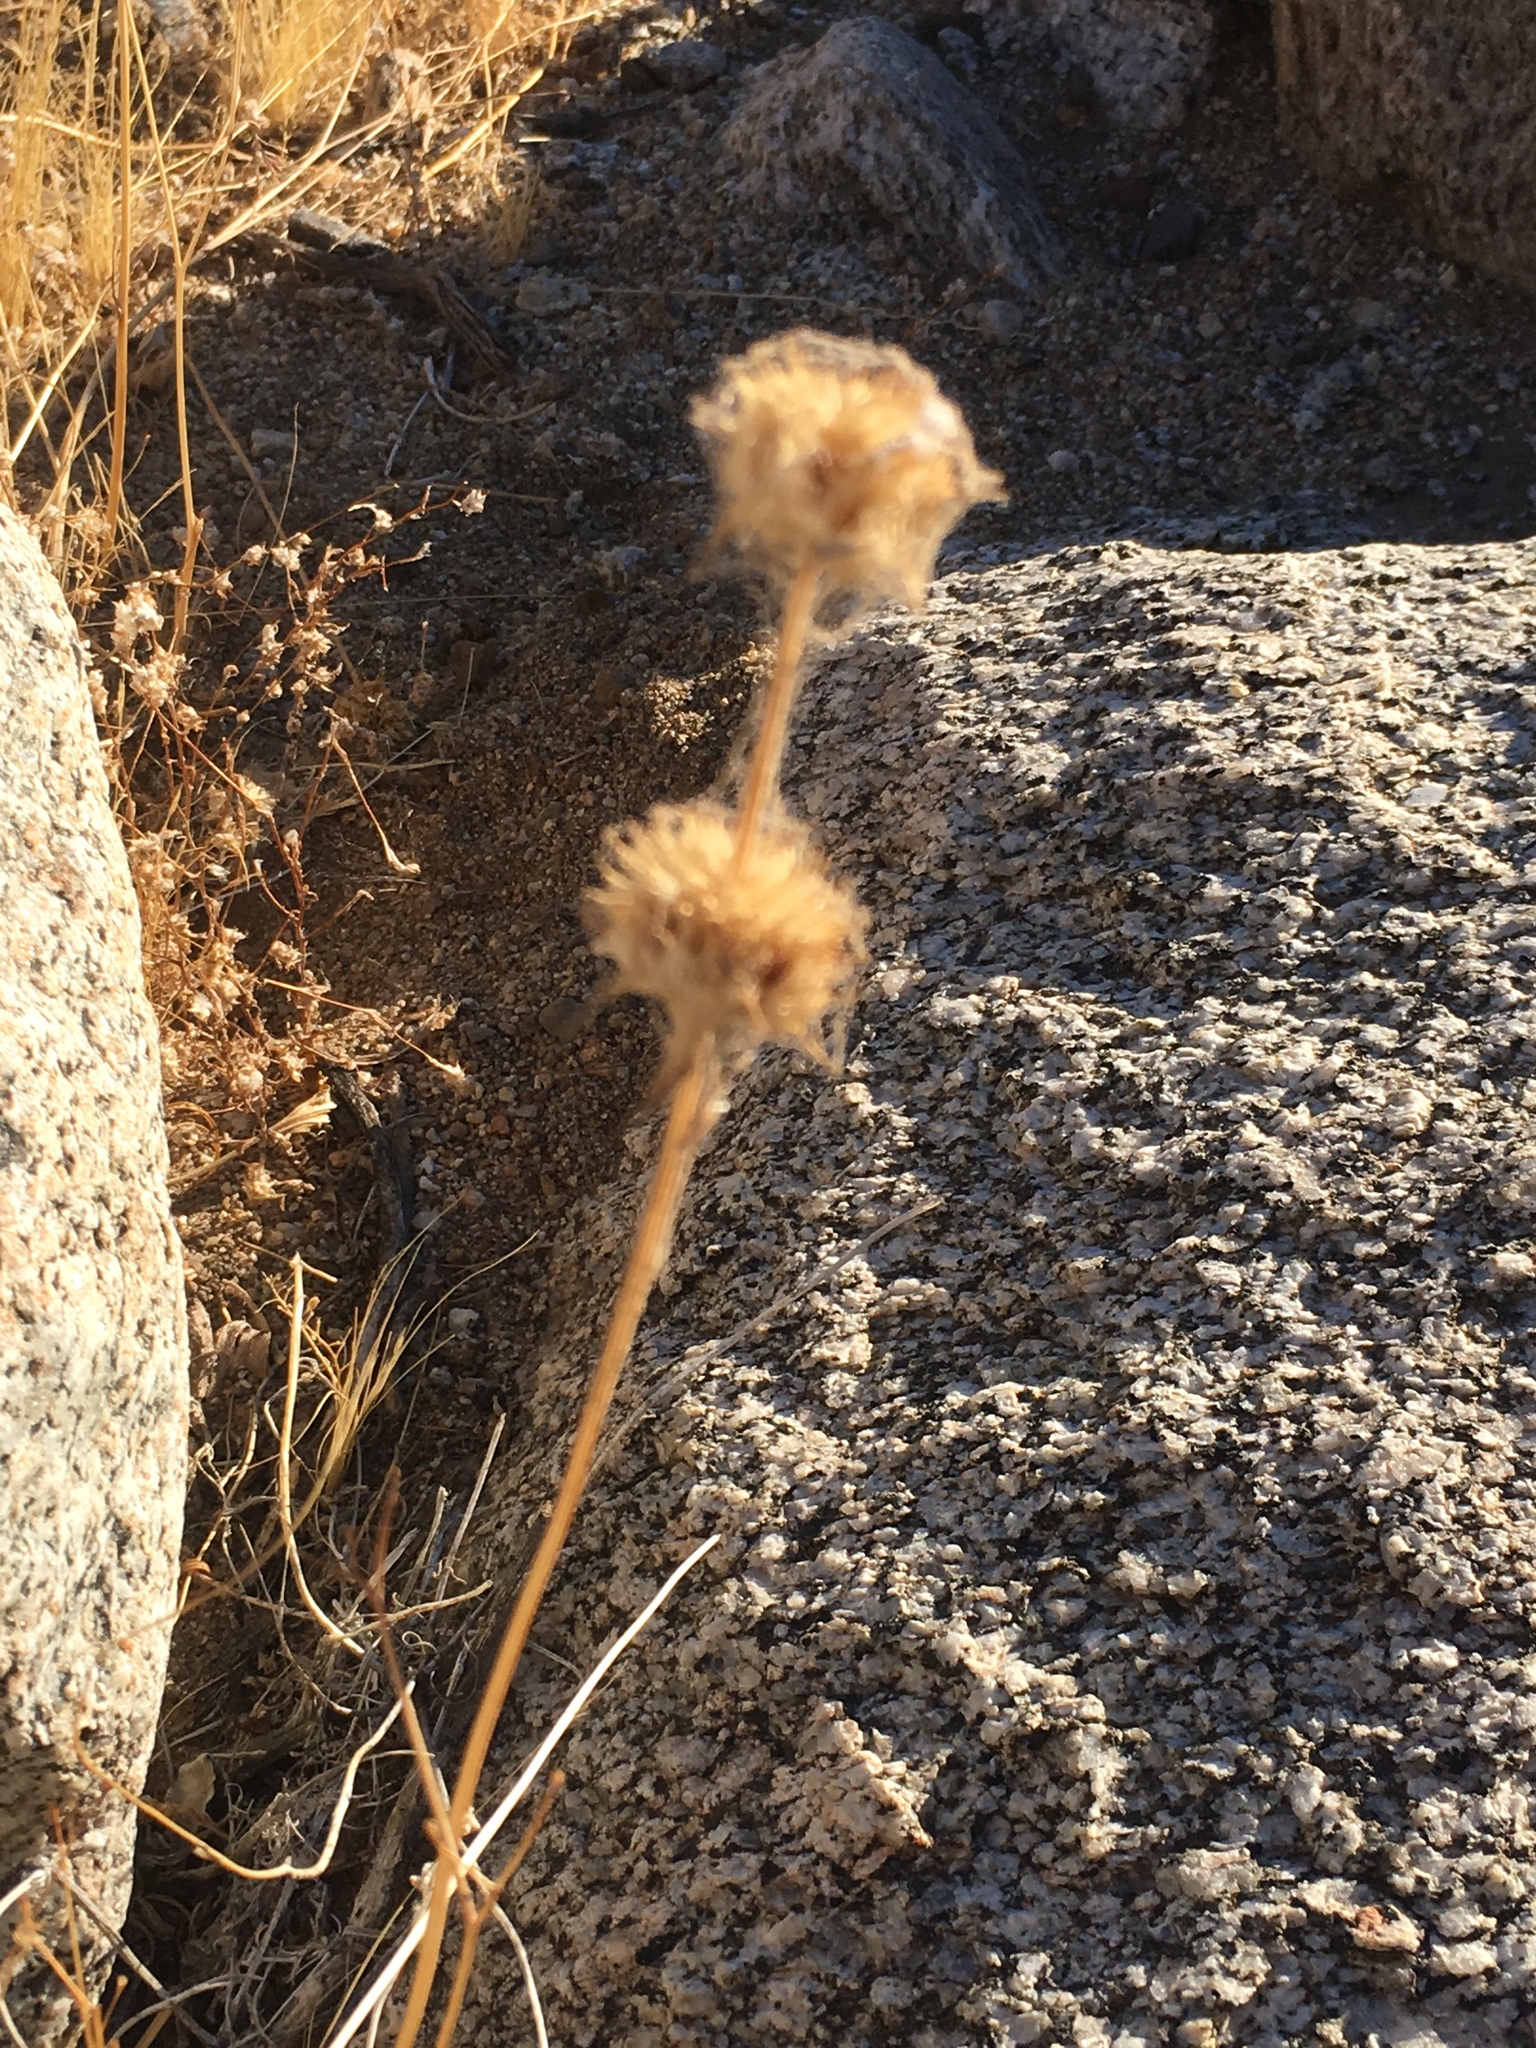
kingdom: Plantae
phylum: Tracheophyta
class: Magnoliopsida
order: Lamiales
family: Lamiaceae
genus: Salvia
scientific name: Salvia columbariae
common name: Chia
